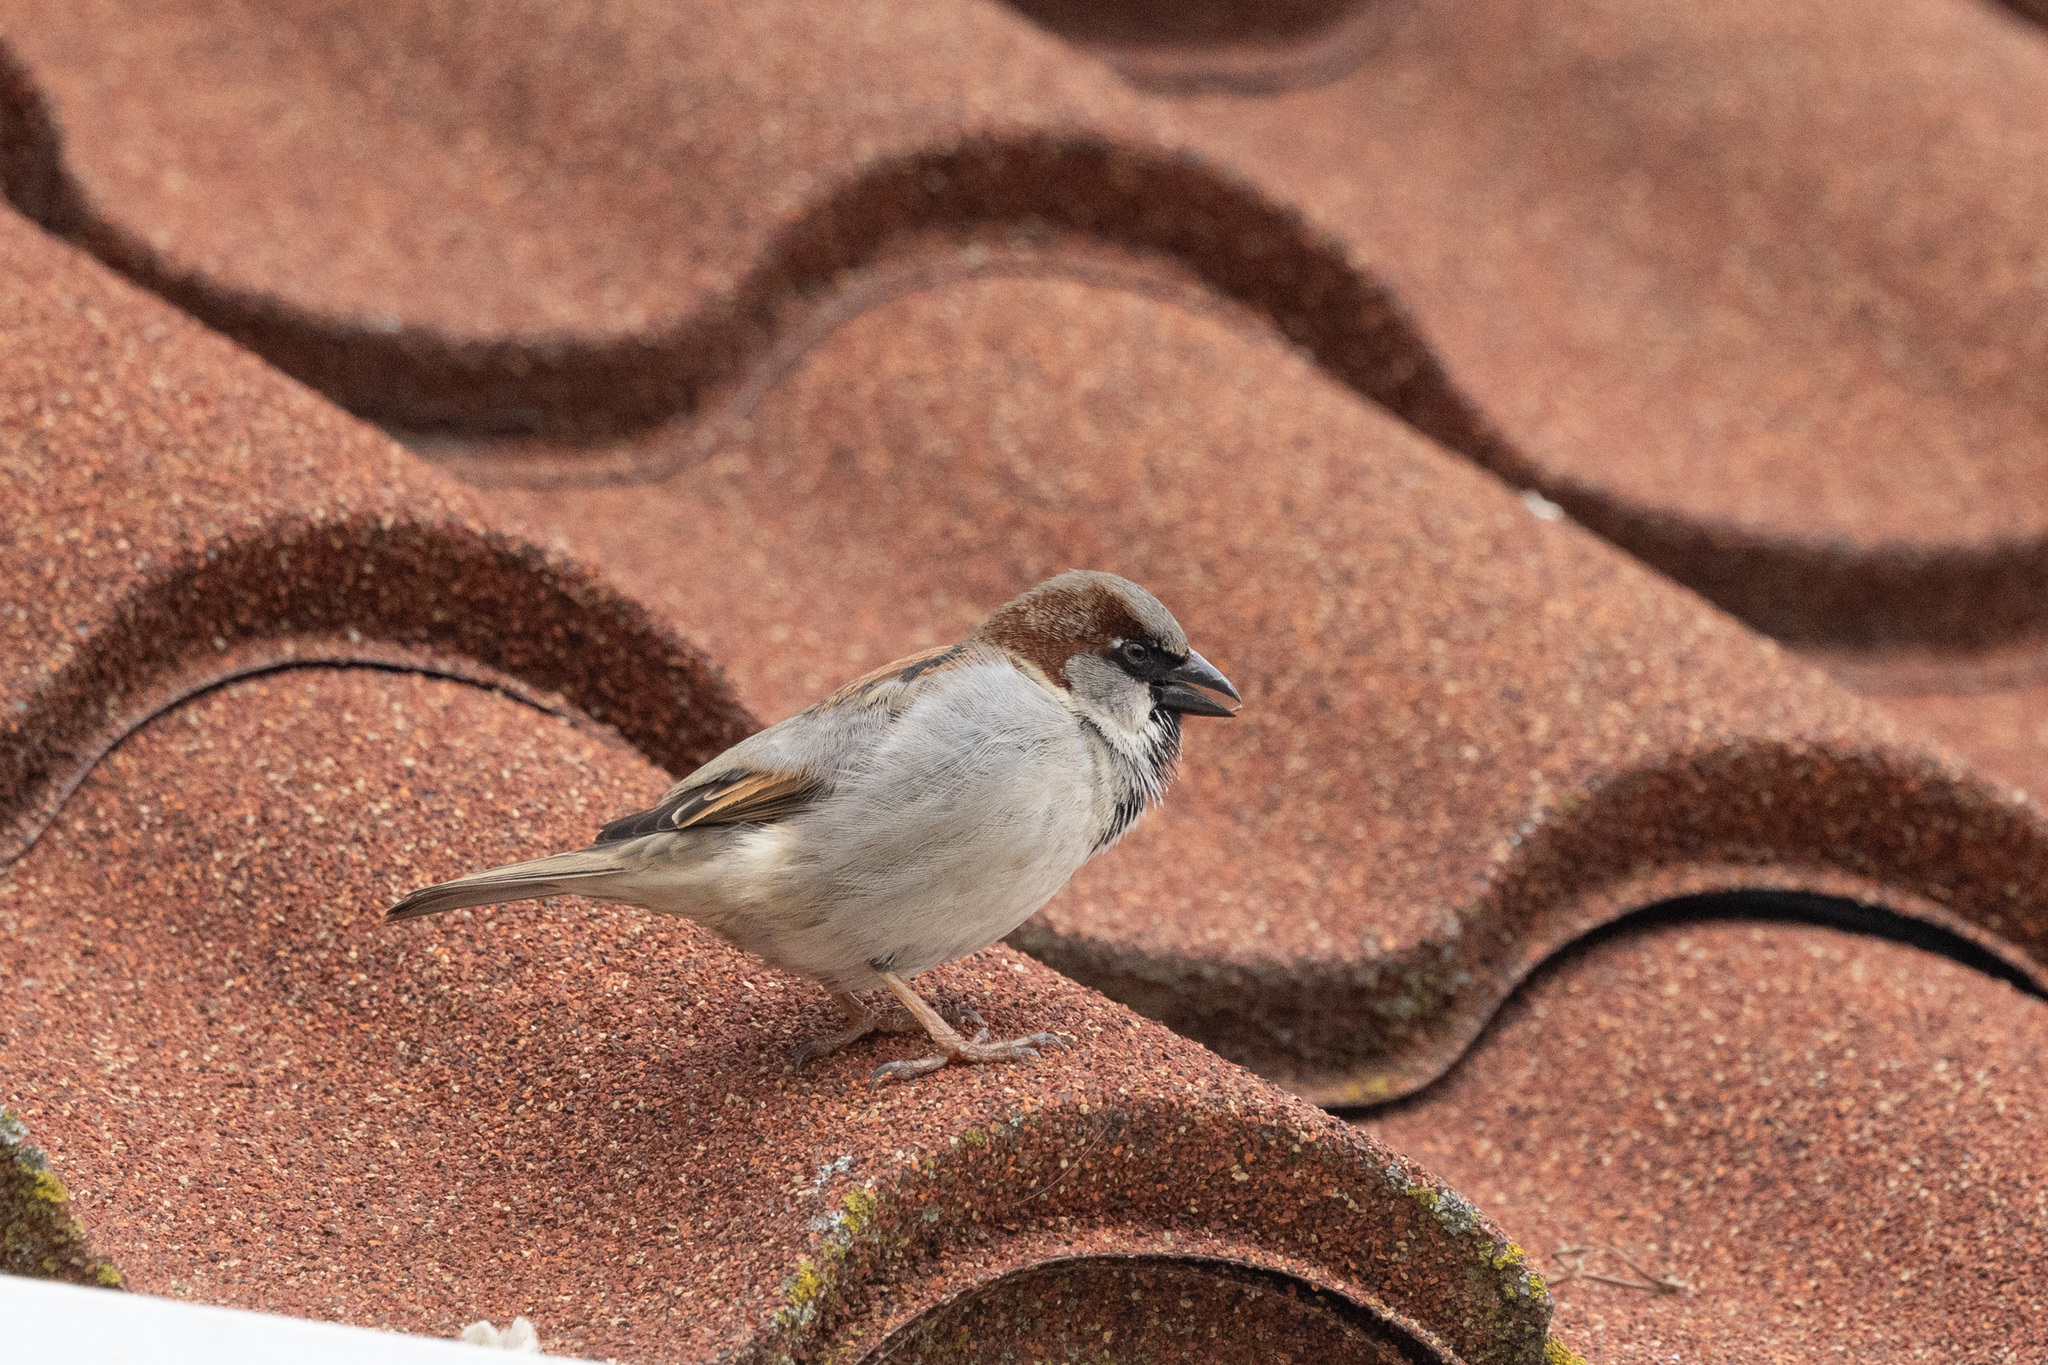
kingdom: Animalia
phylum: Chordata
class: Aves
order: Passeriformes
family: Passeridae
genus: Passer
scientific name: Passer domesticus
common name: House sparrow
